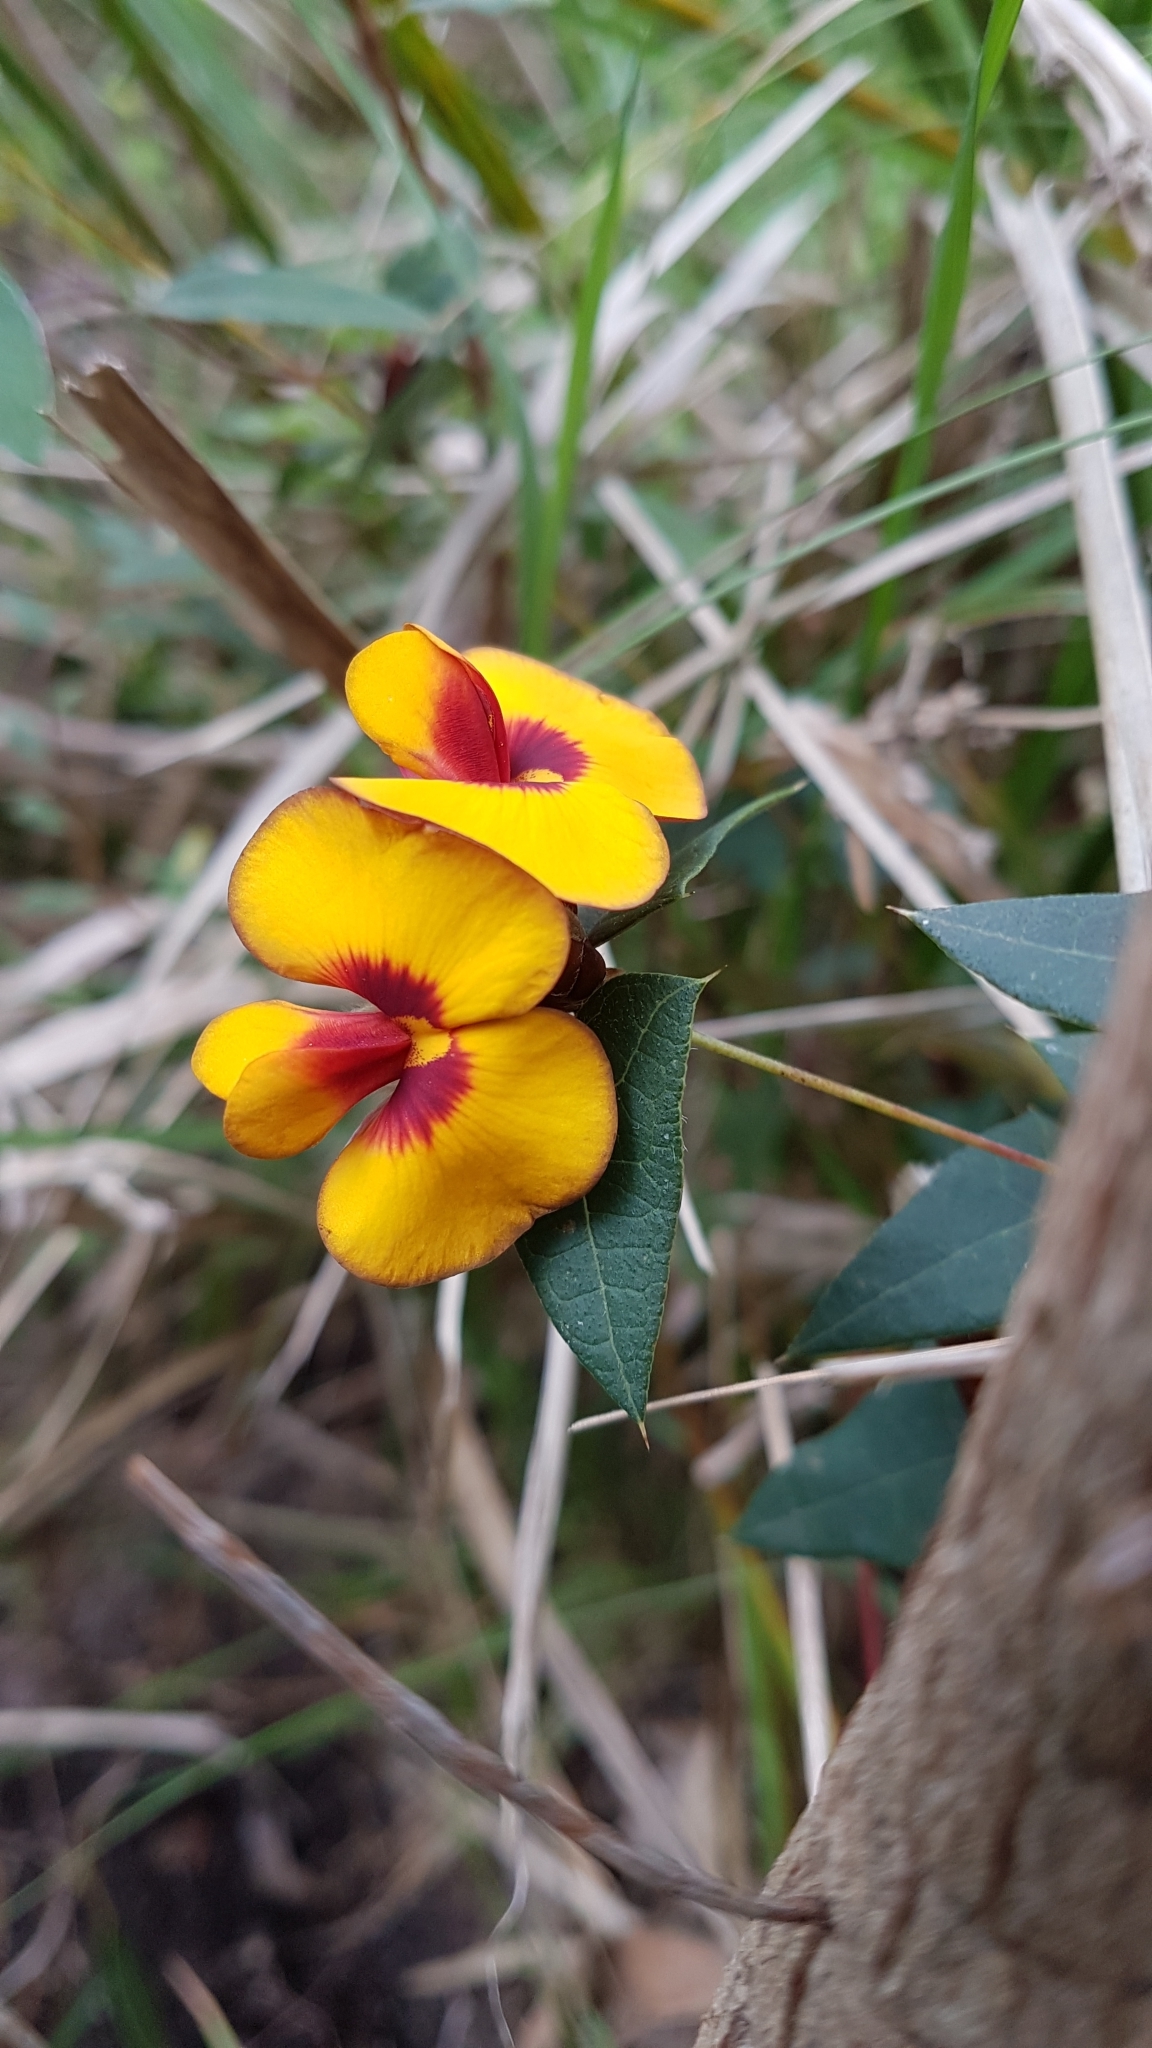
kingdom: Plantae
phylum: Tracheophyta
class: Magnoliopsida
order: Fabales
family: Fabaceae
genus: Platylobium
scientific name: Platylobium obtusangulum
